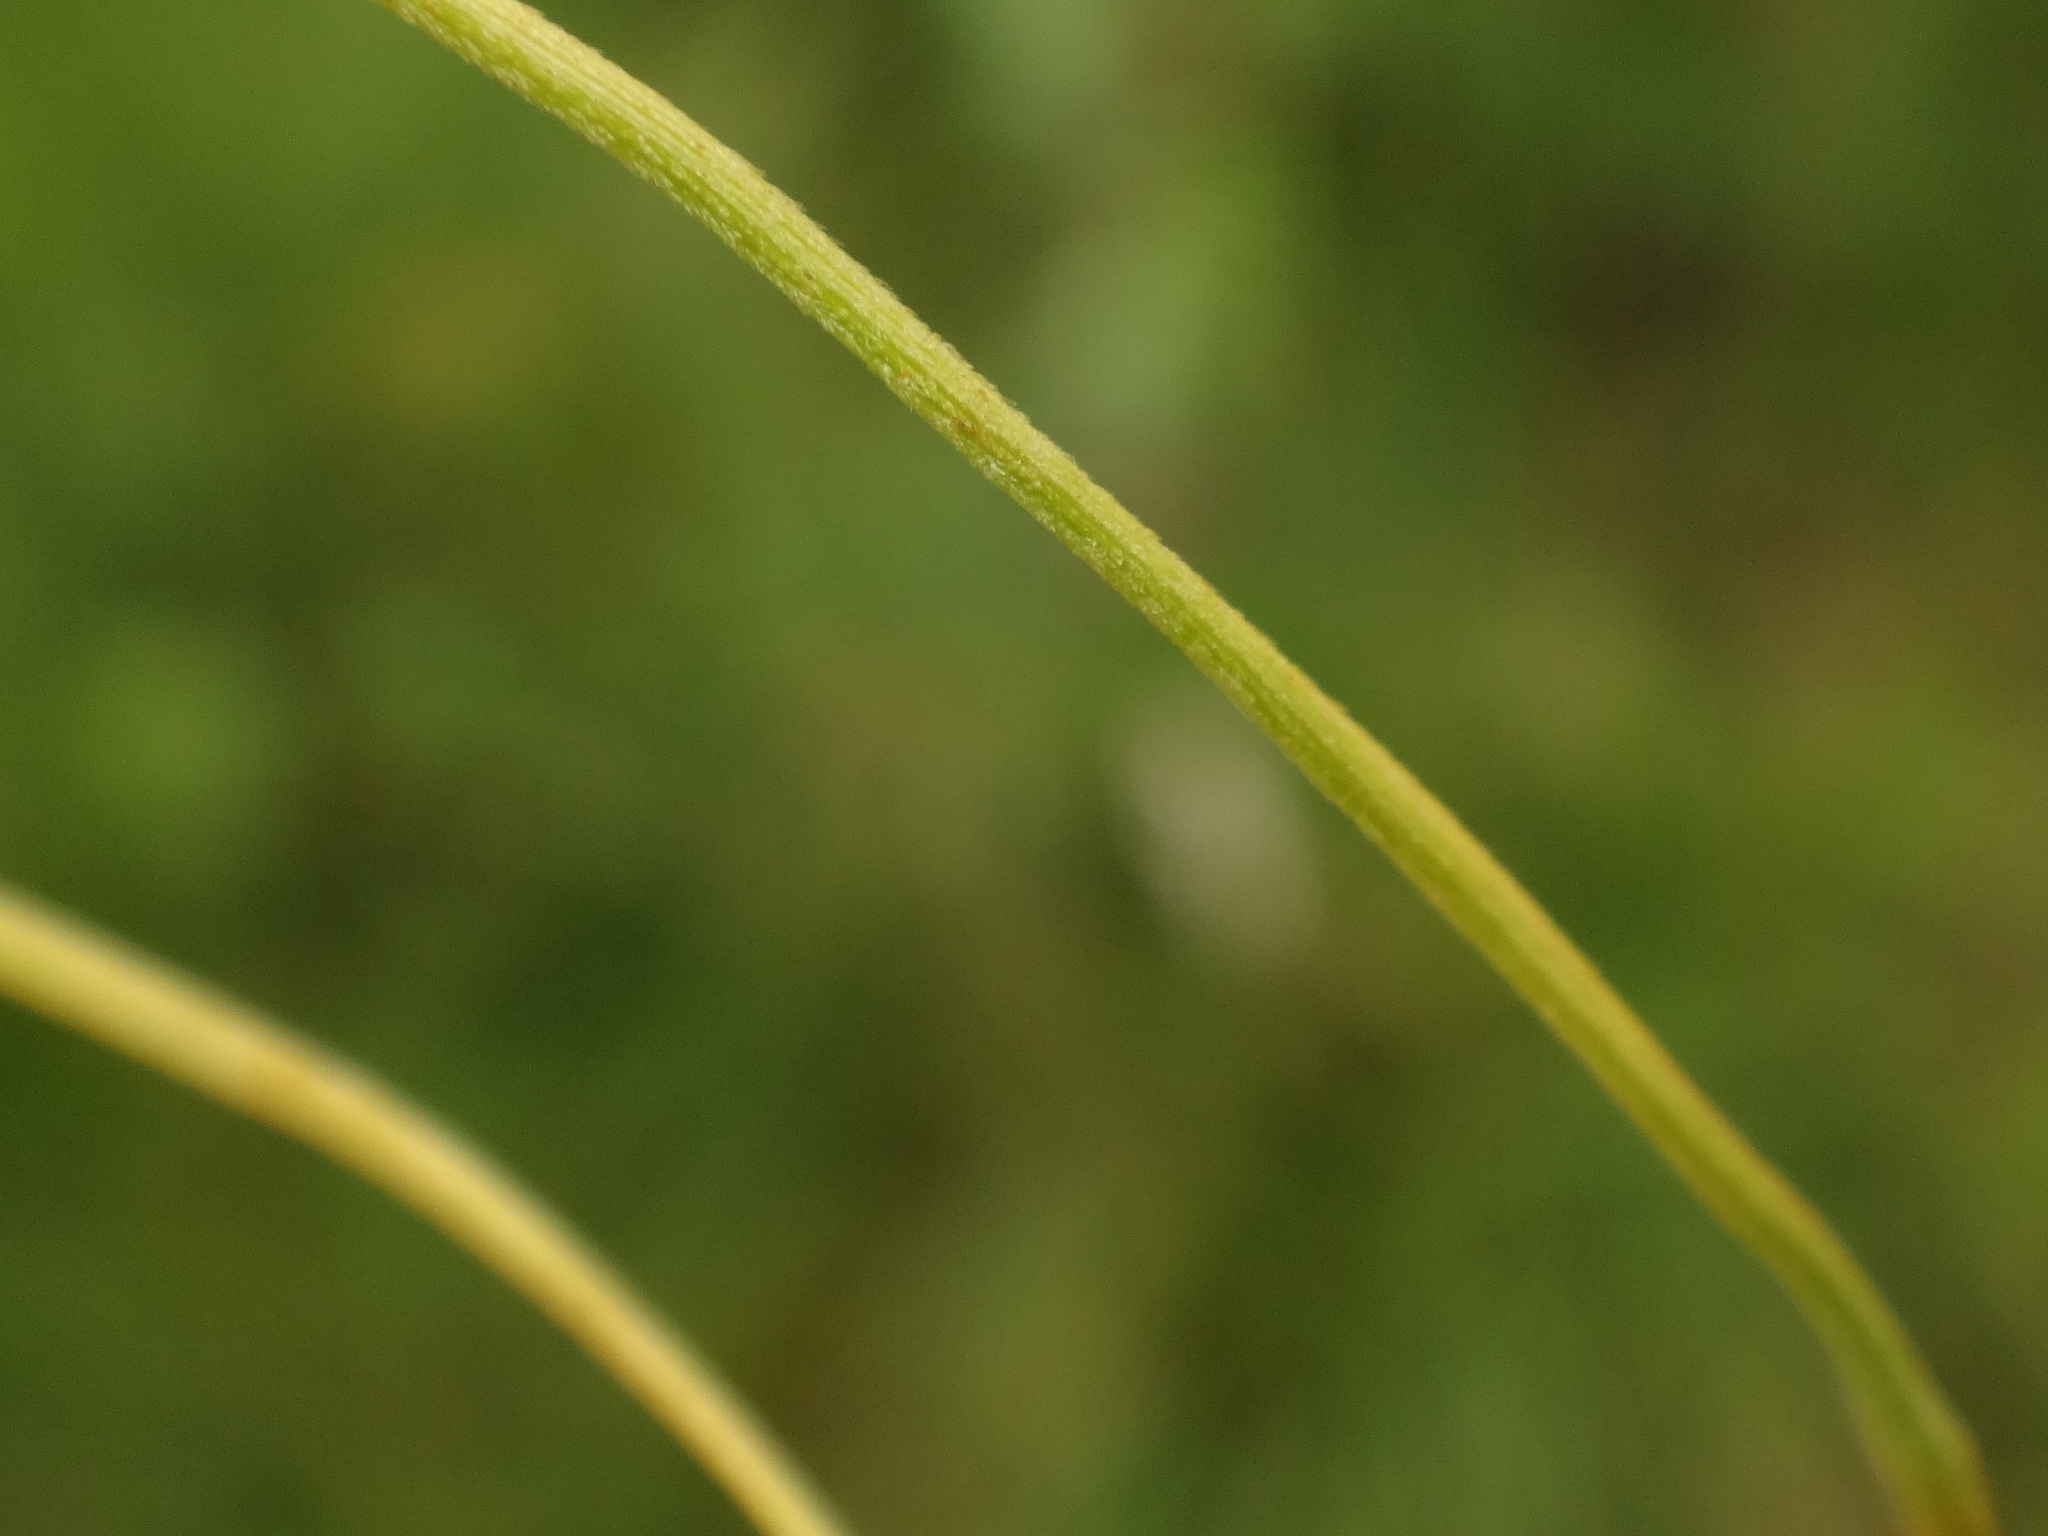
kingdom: Plantae
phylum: Tracheophyta
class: Liliopsida
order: Poales
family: Cyperaceae
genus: Eriophorum
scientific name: Eriophorum latifolium
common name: Broad-leaved cottongrass
